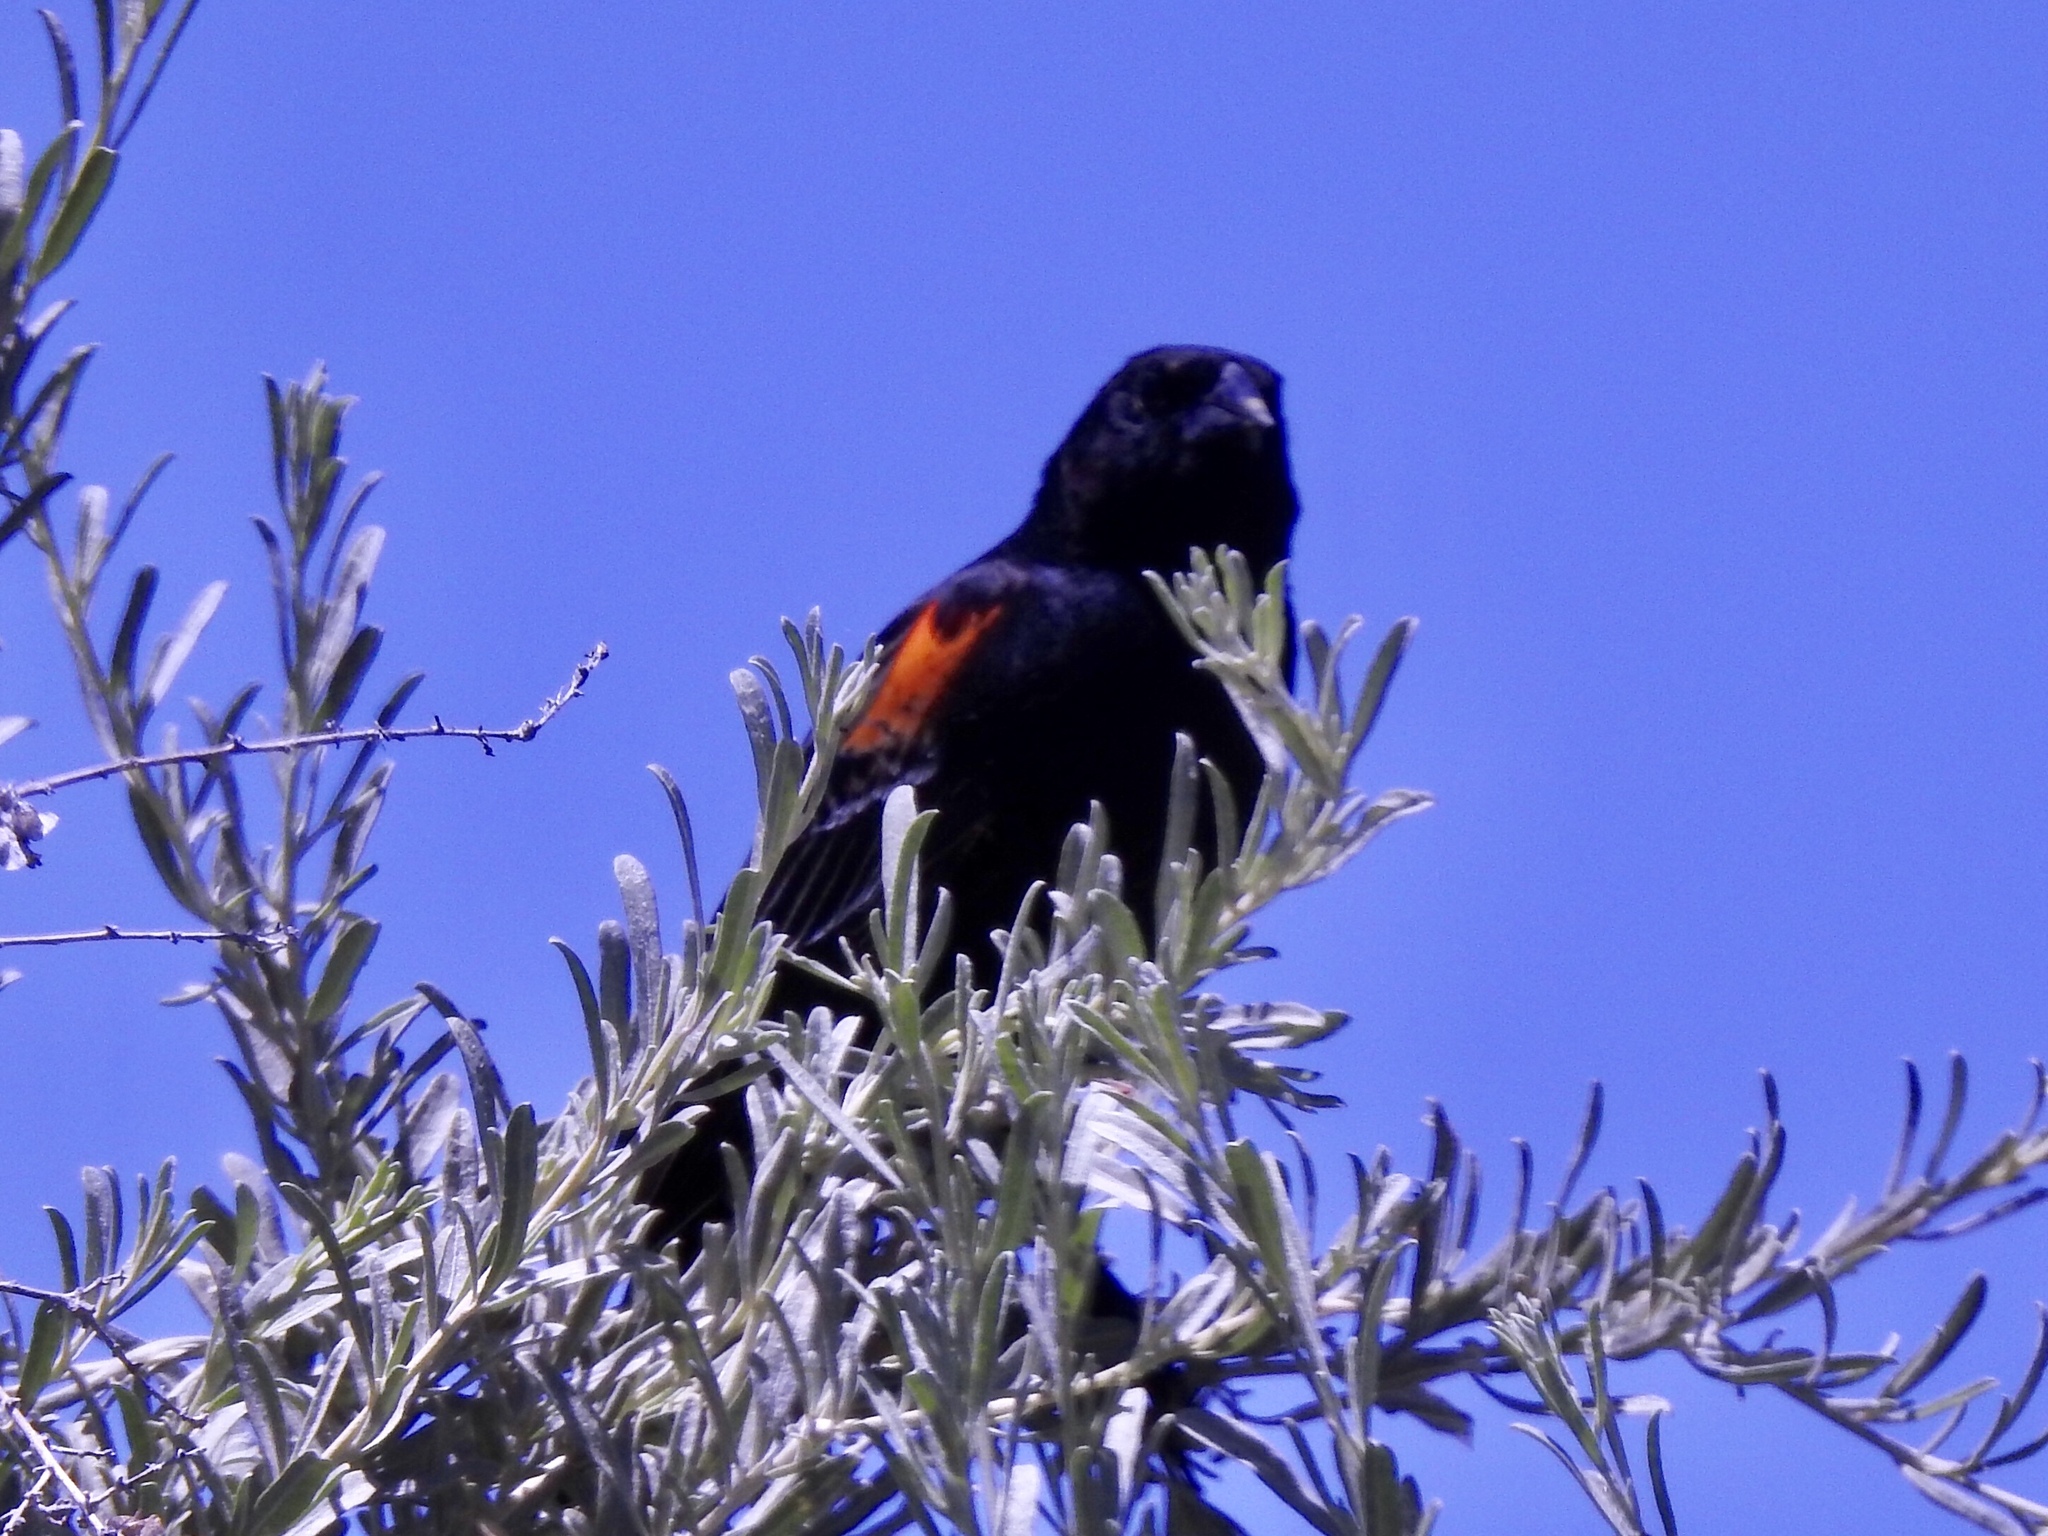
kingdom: Animalia
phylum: Chordata
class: Aves
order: Passeriformes
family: Icteridae
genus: Agelaius
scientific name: Agelaius phoeniceus
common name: Red-winged blackbird
